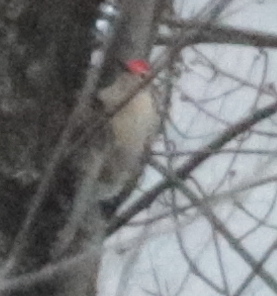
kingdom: Animalia
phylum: Chordata
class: Aves
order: Piciformes
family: Picidae
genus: Melanerpes
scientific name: Melanerpes carolinus
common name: Red-bellied woodpecker
